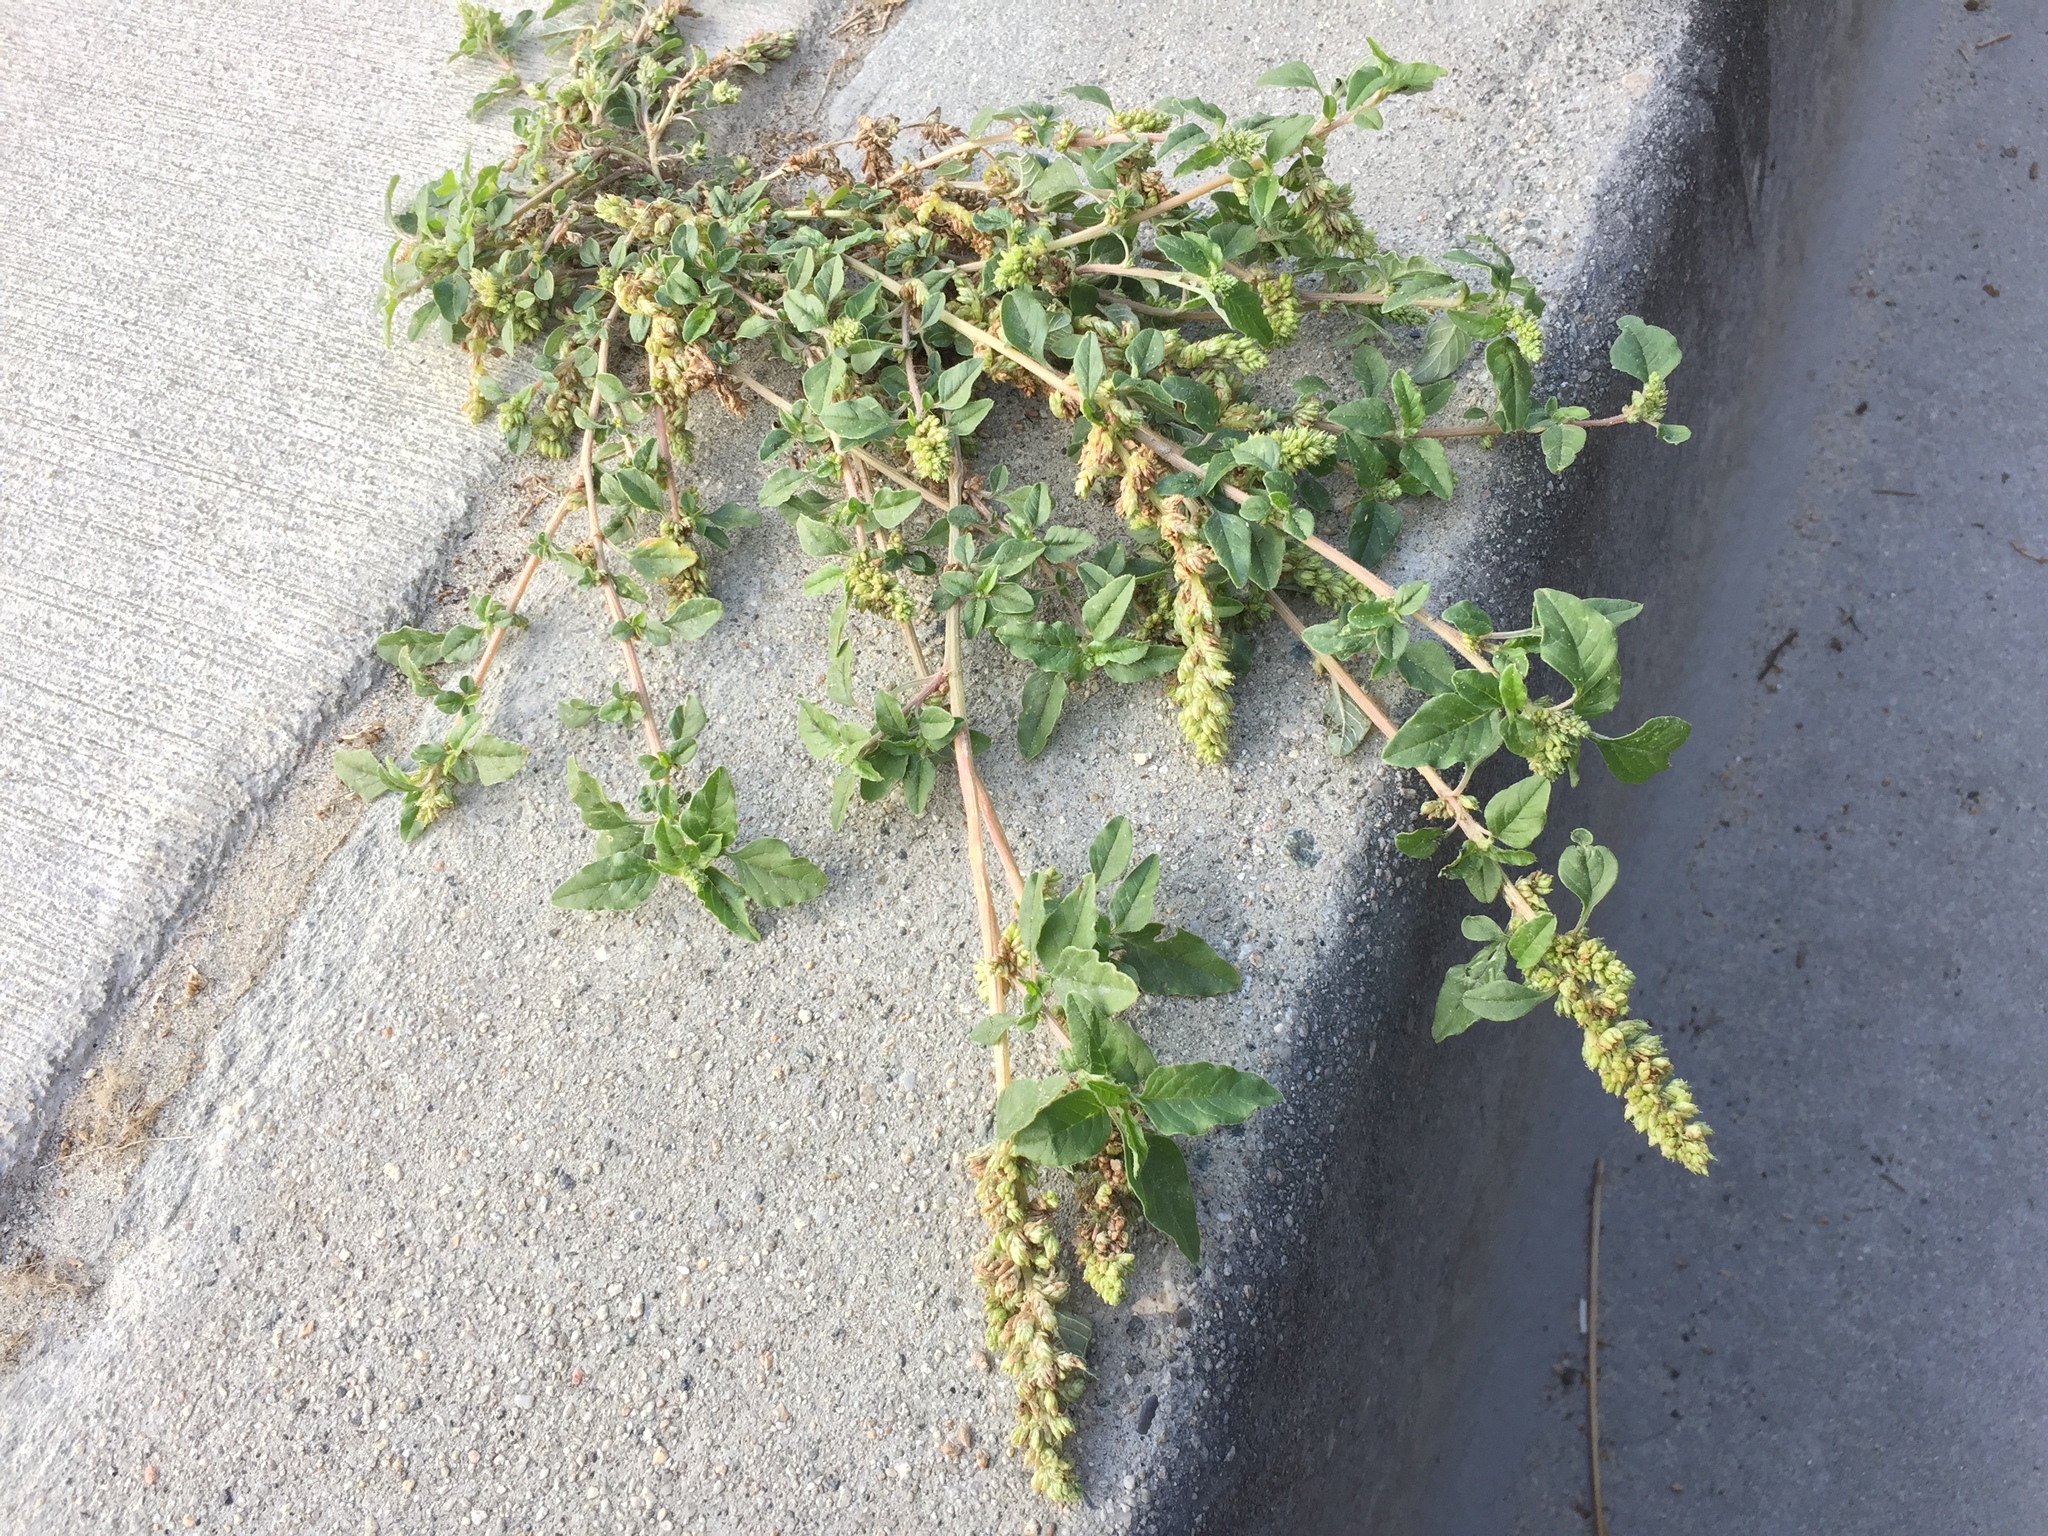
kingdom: Plantae
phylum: Tracheophyta
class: Magnoliopsida
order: Caryophyllales
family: Amaranthaceae
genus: Amaranthus
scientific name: Amaranthus deflexus
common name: Perennial pigweed
